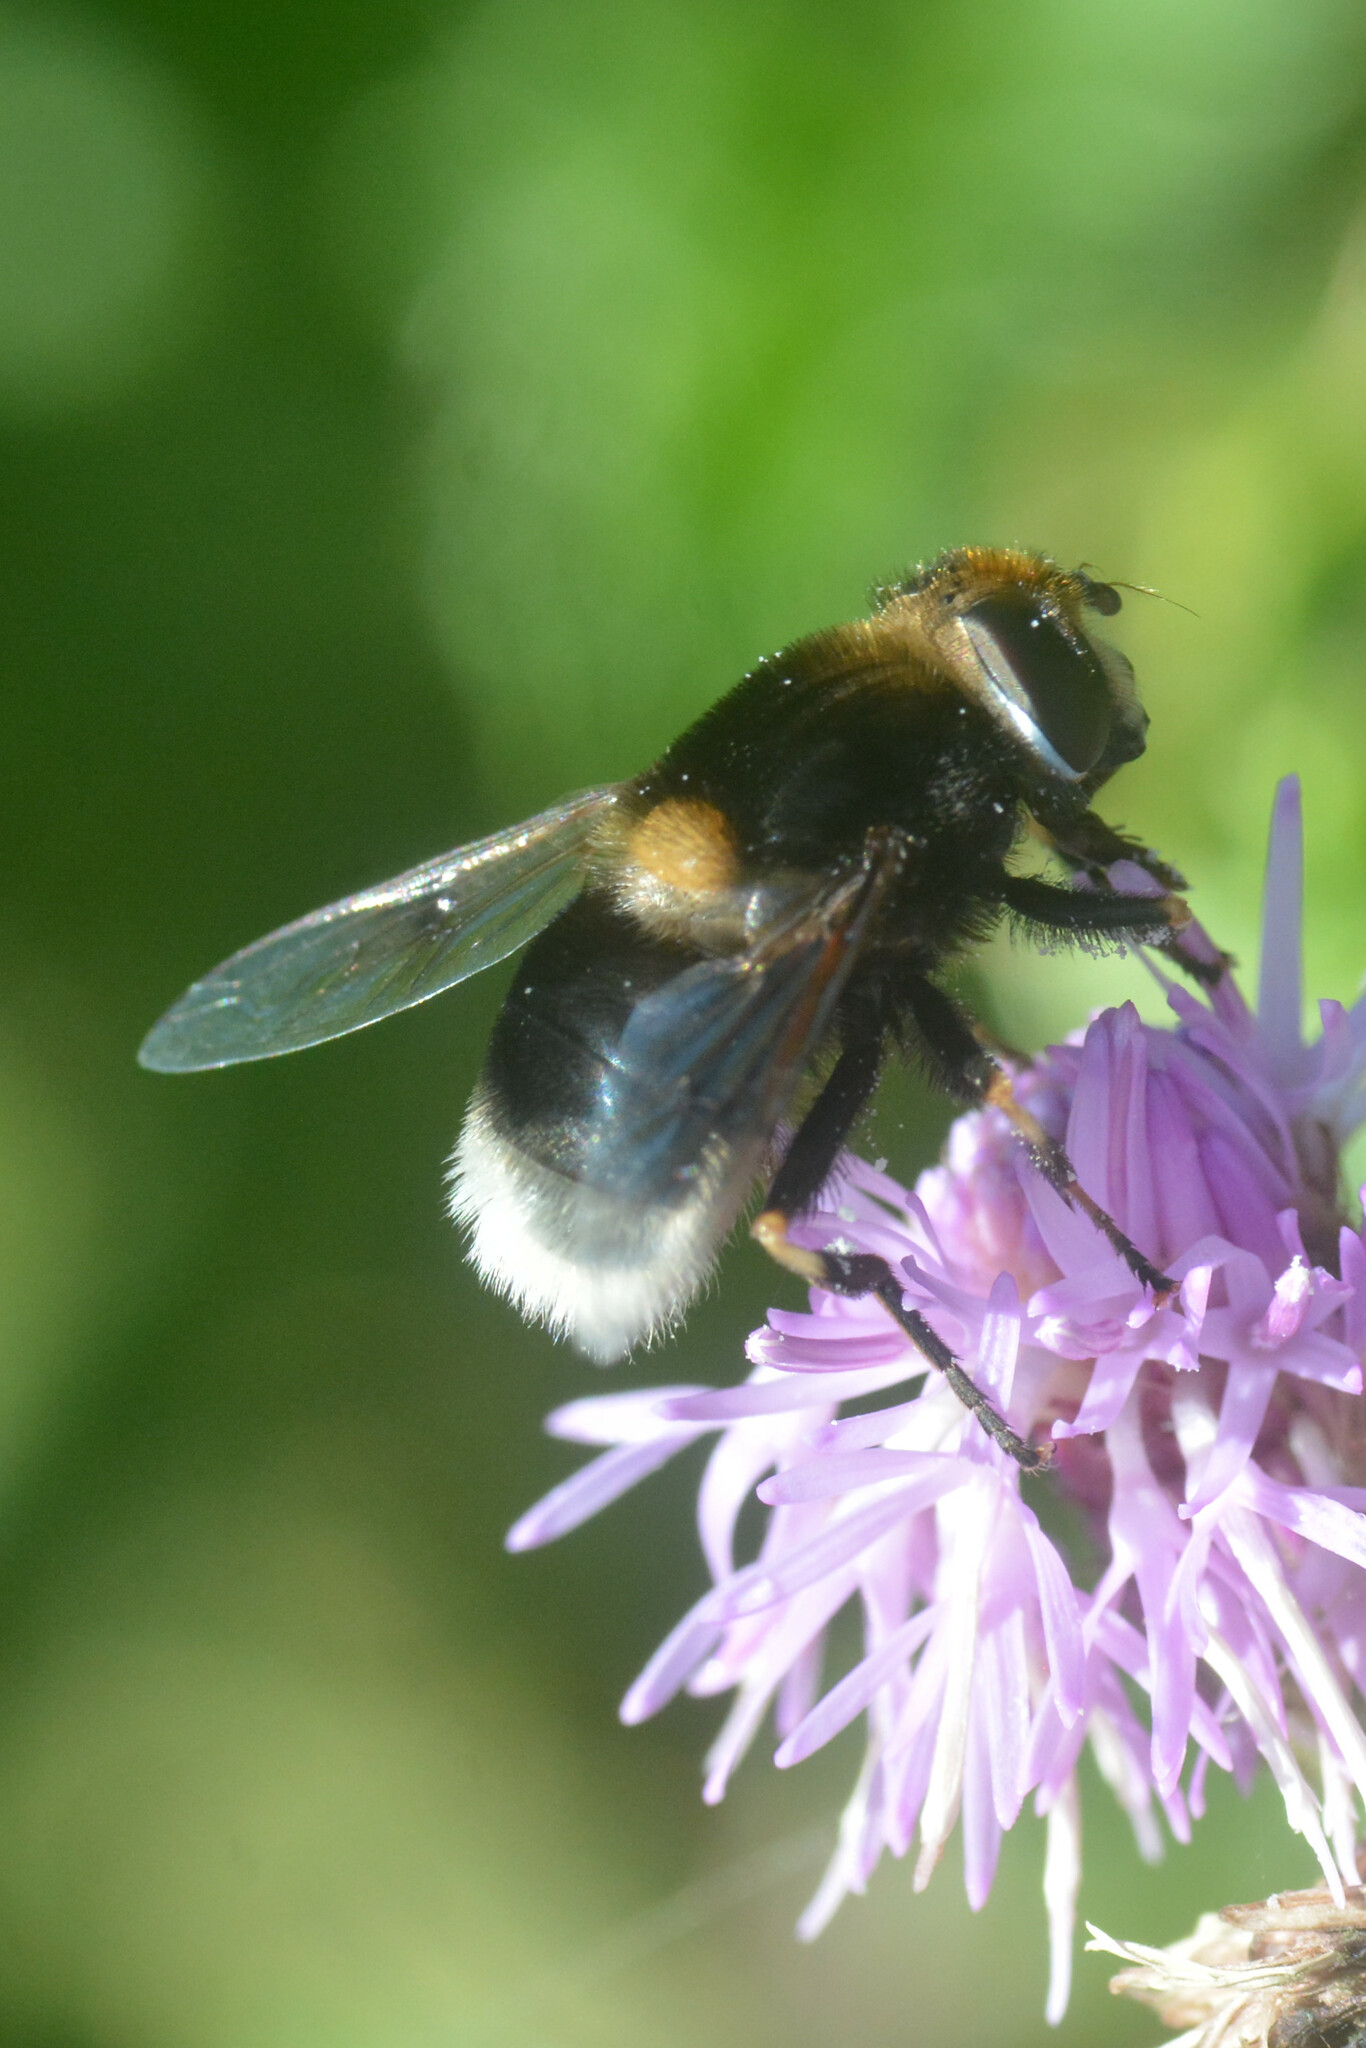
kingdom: Animalia
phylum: Arthropoda
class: Insecta
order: Diptera
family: Syrphidae
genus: Eristalis
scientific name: Eristalis intricaria
